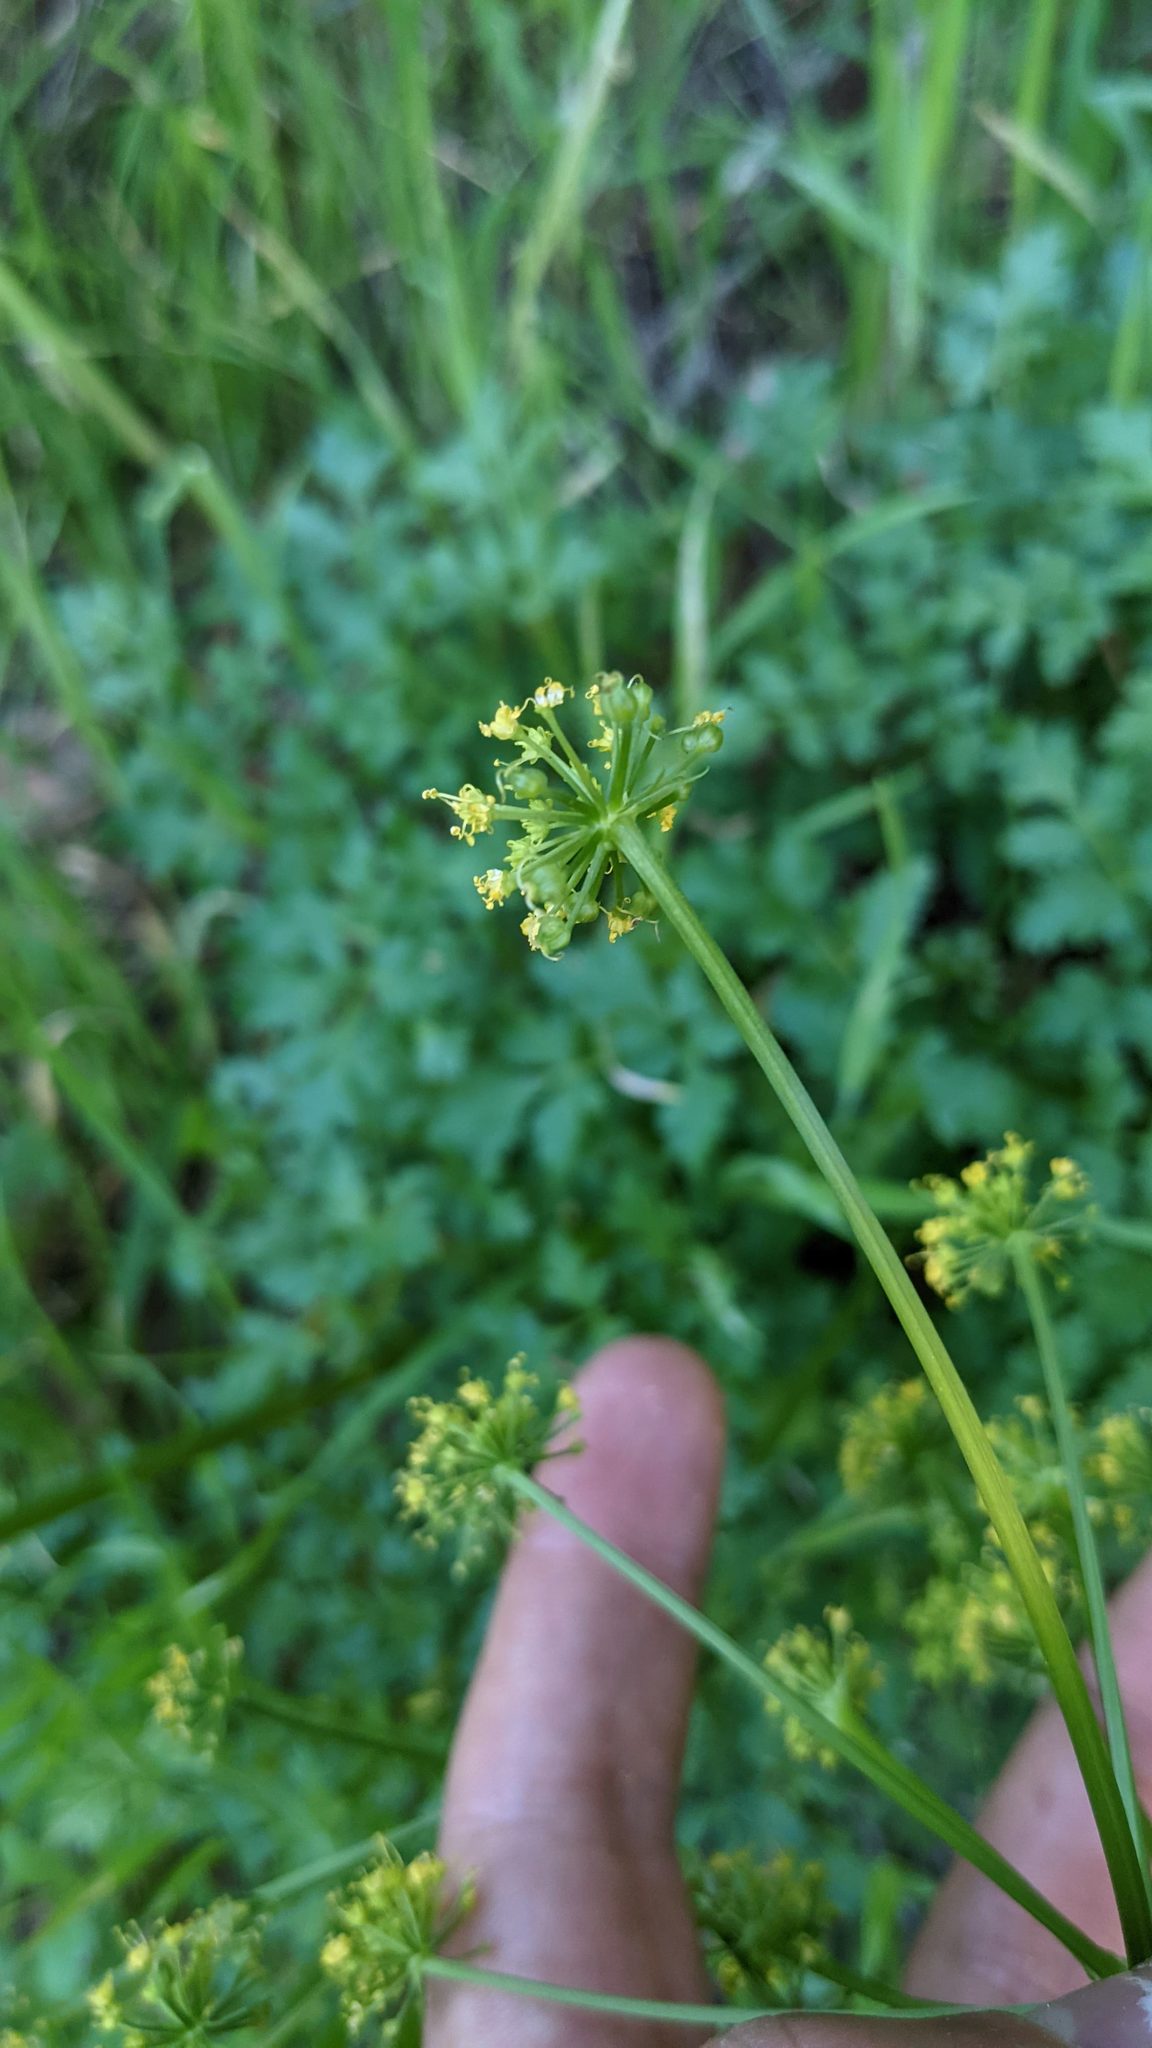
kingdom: Plantae
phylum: Tracheophyta
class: Magnoliopsida
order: Apiales
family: Apiaceae
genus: Tauschia
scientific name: Tauschia kelloggii
